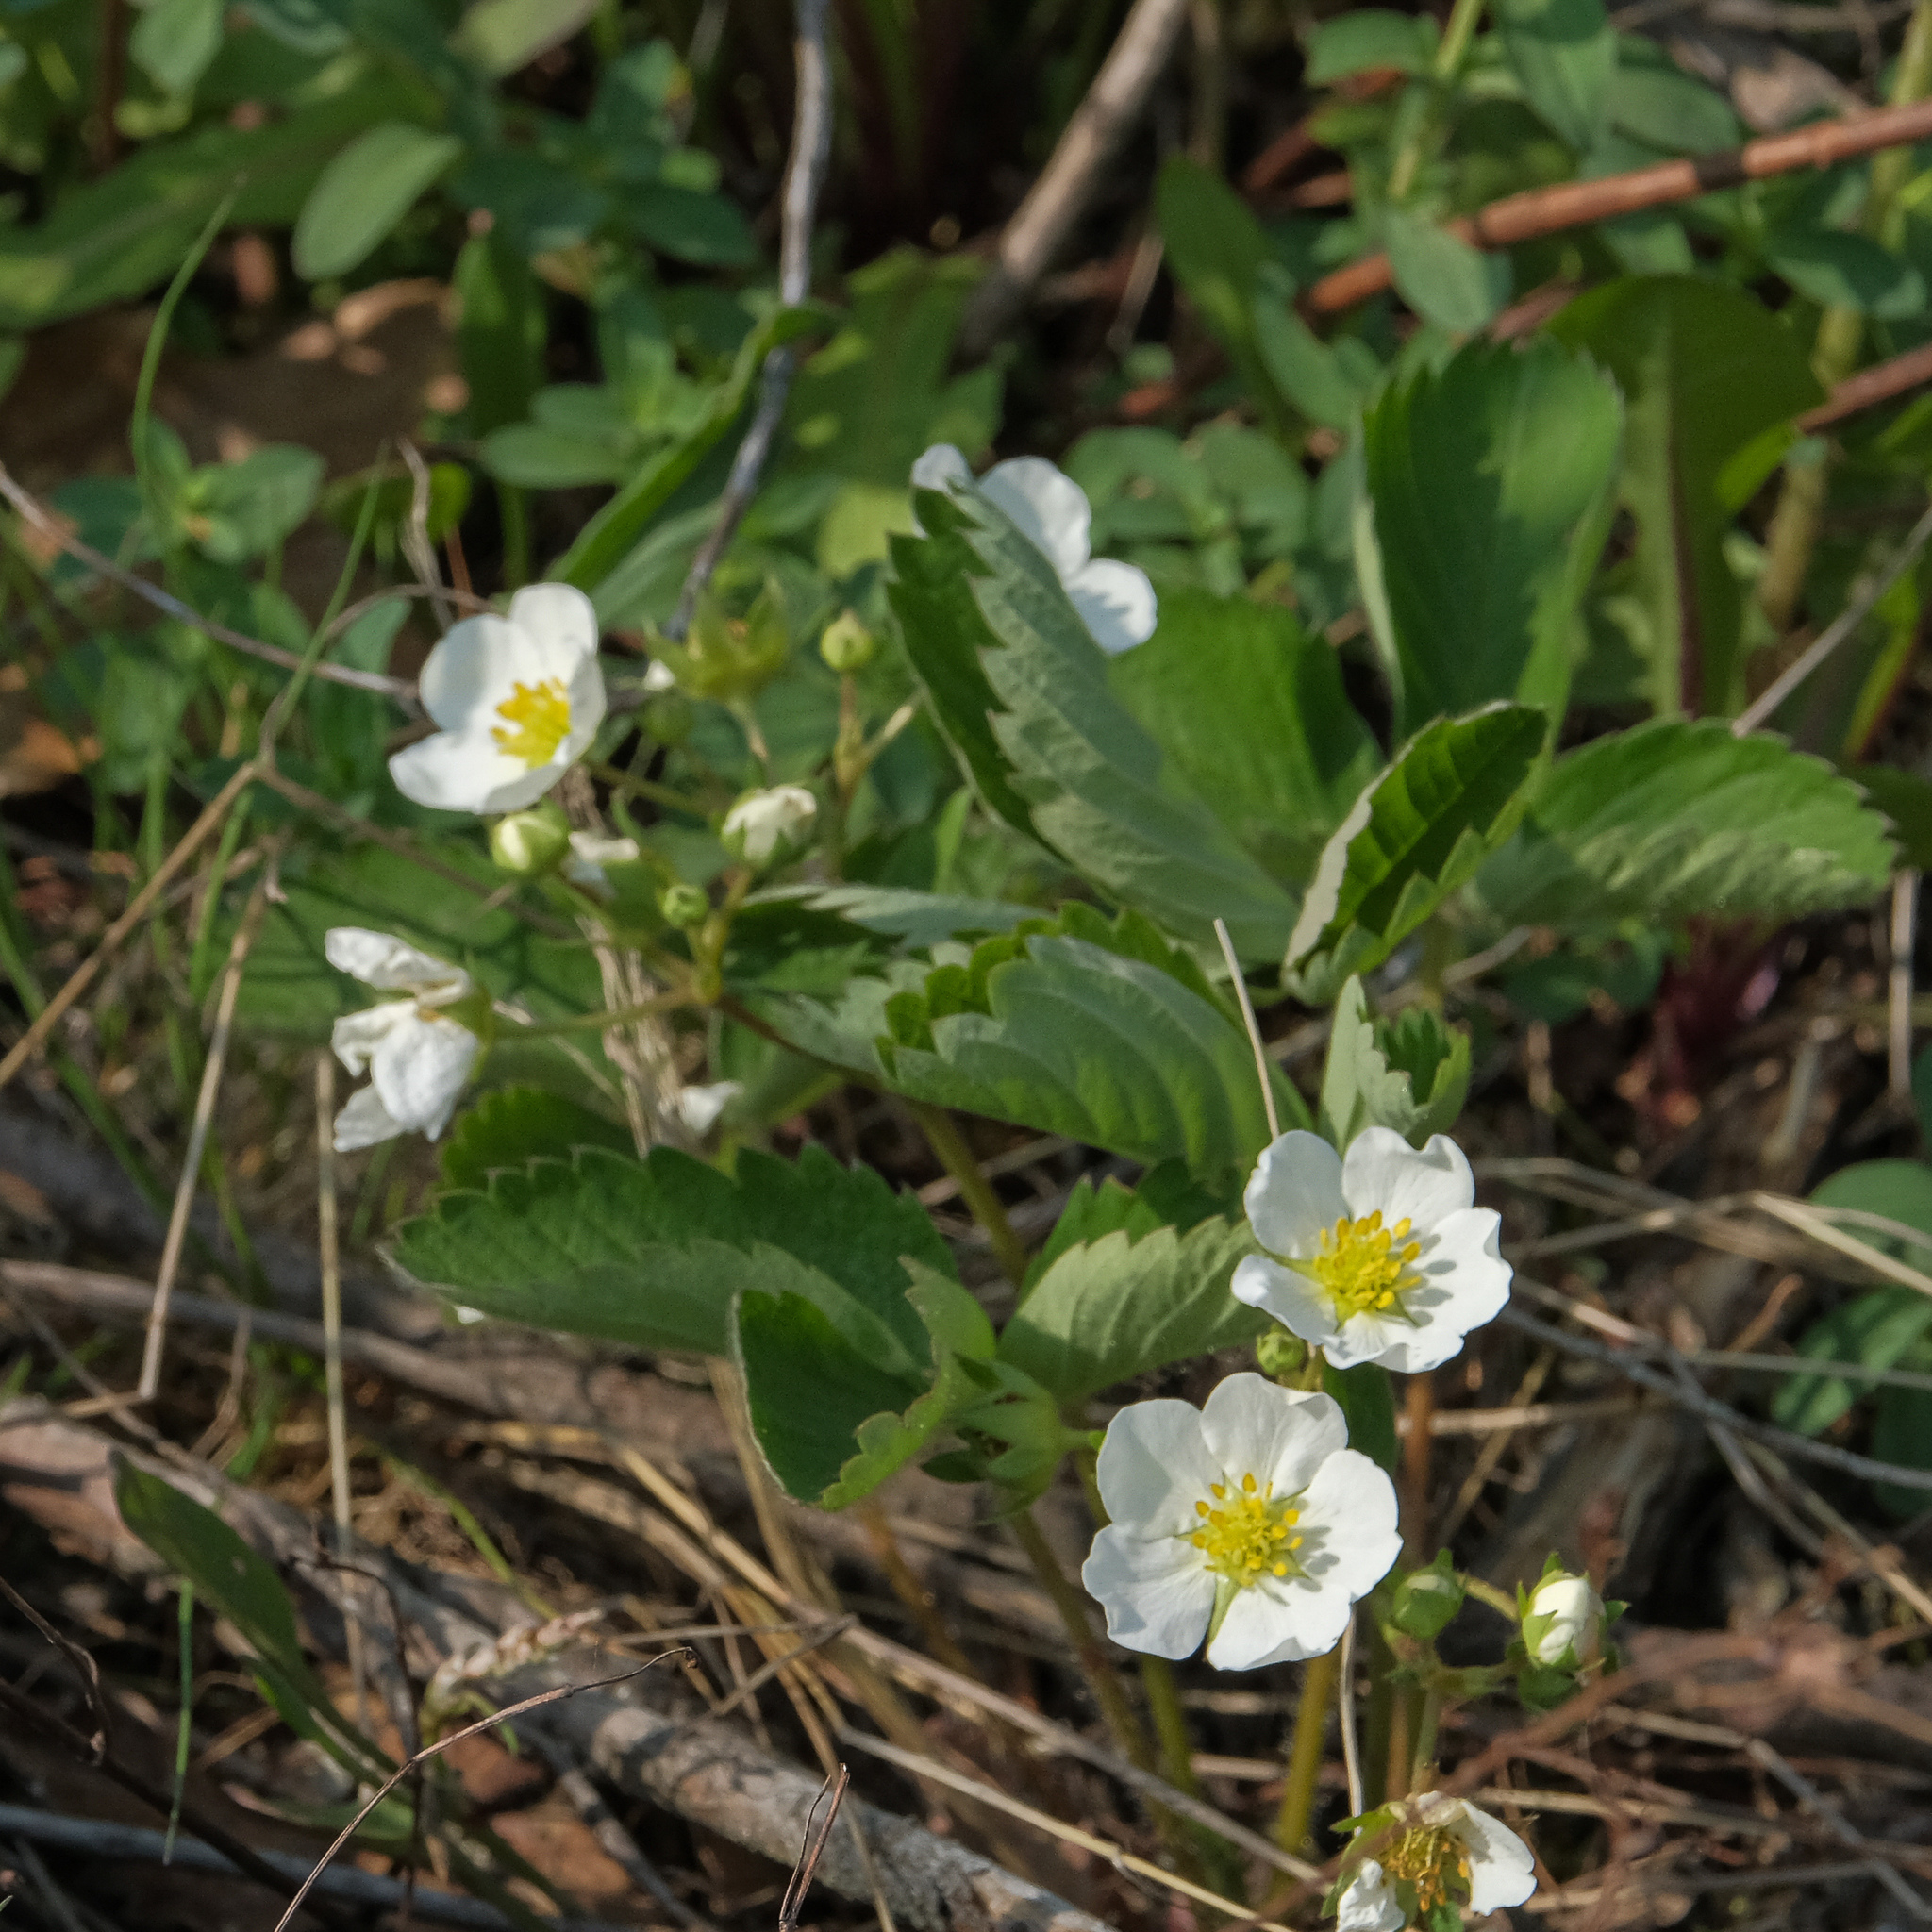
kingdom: Plantae
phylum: Tracheophyta
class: Magnoliopsida
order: Rosales
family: Rosaceae
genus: Fragaria
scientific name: Fragaria virginiana
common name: Thickleaved wild strawberry
